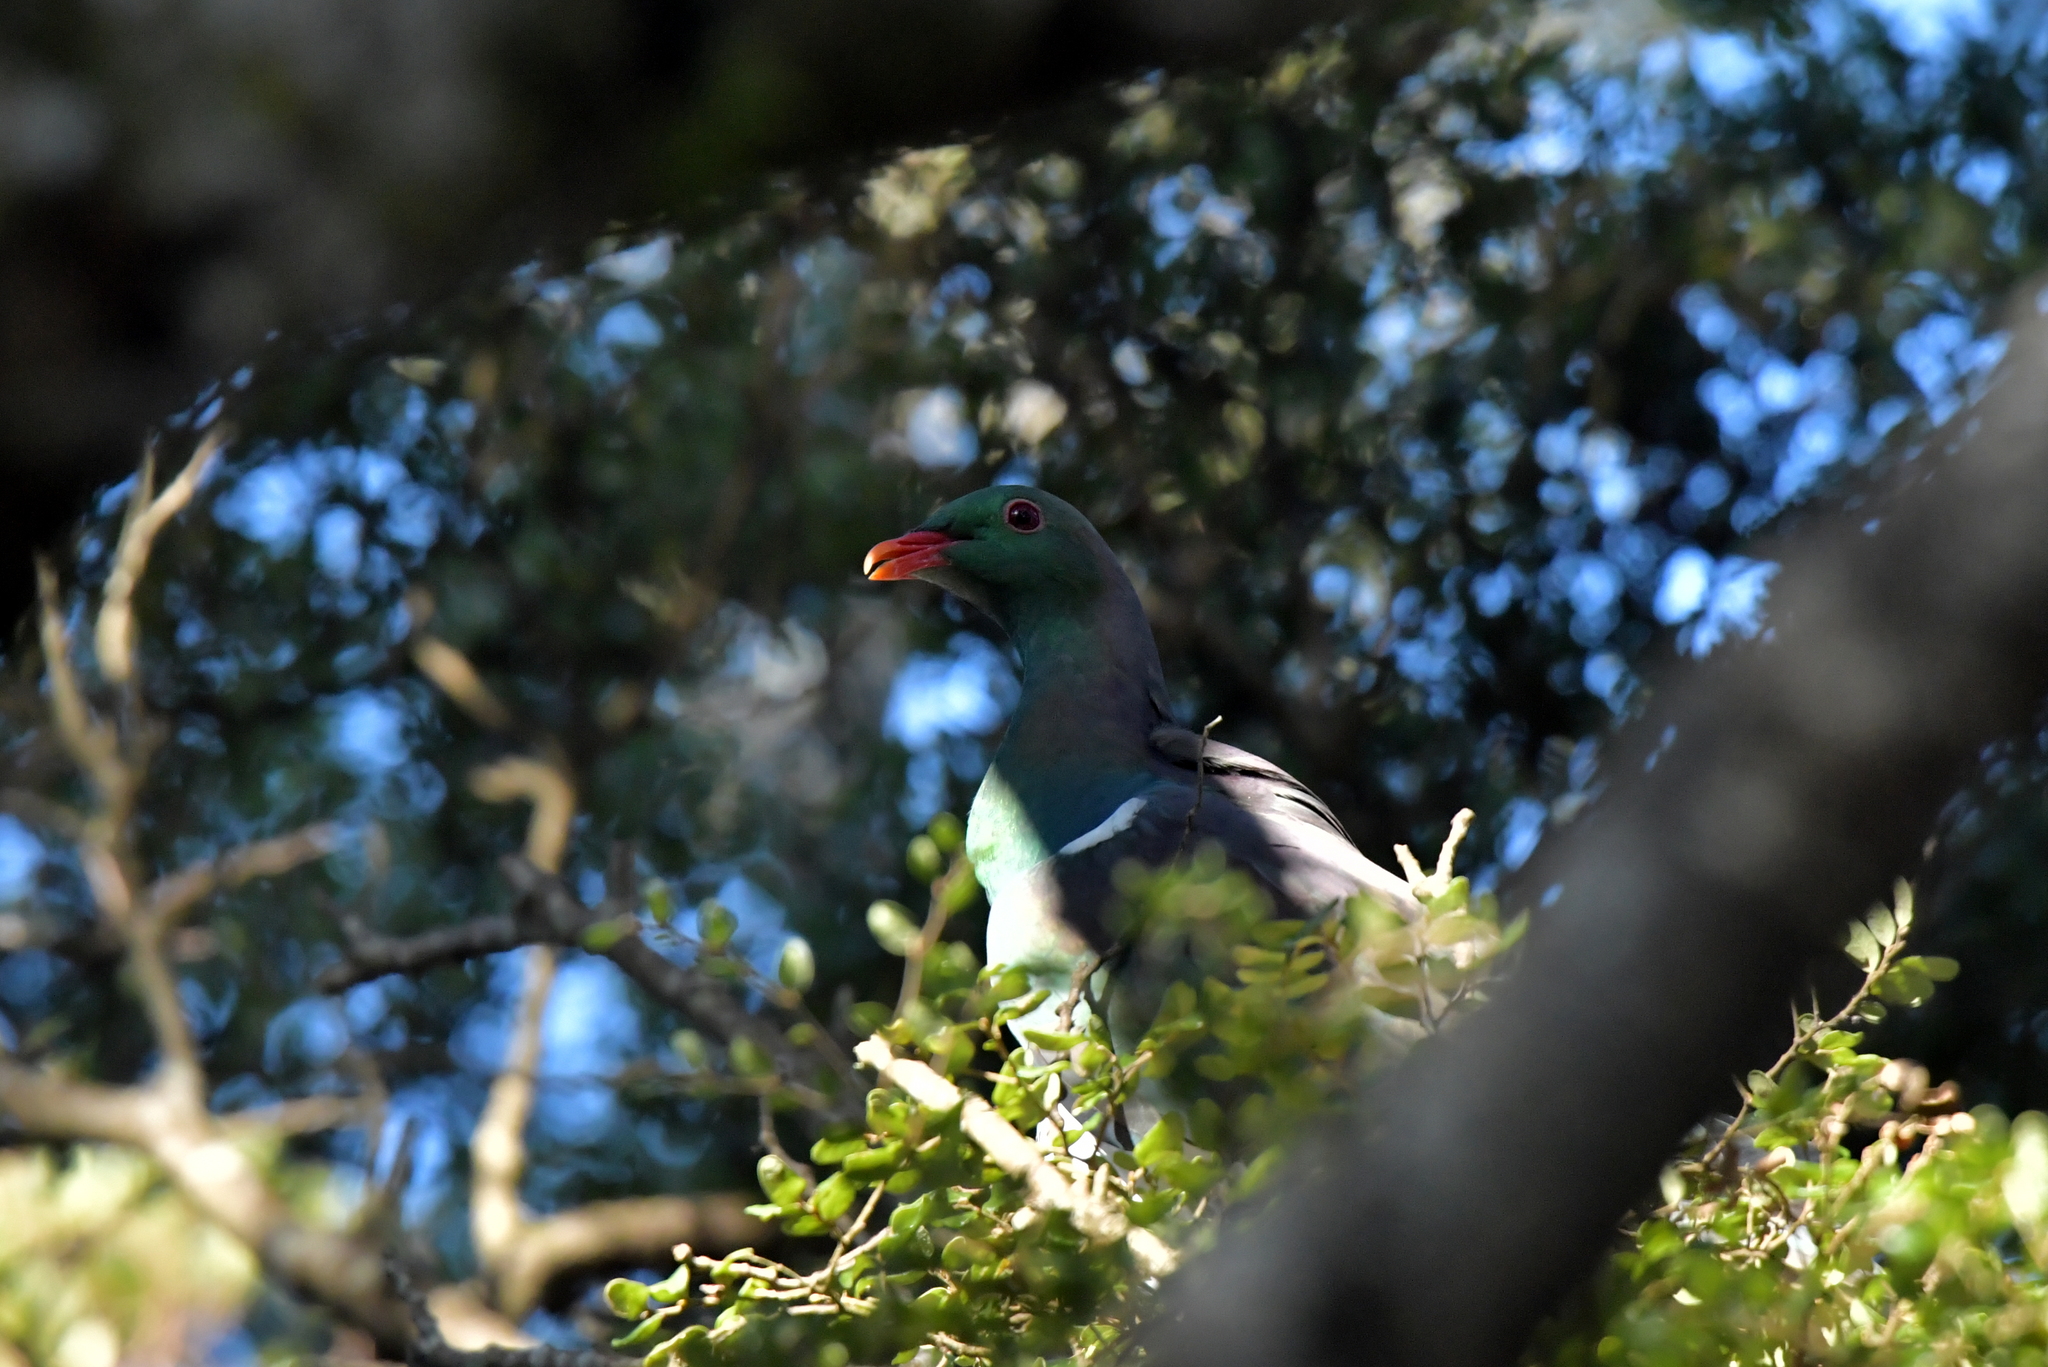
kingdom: Animalia
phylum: Chordata
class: Aves
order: Columbiformes
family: Columbidae
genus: Hemiphaga
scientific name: Hemiphaga novaeseelandiae
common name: New zealand pigeon
